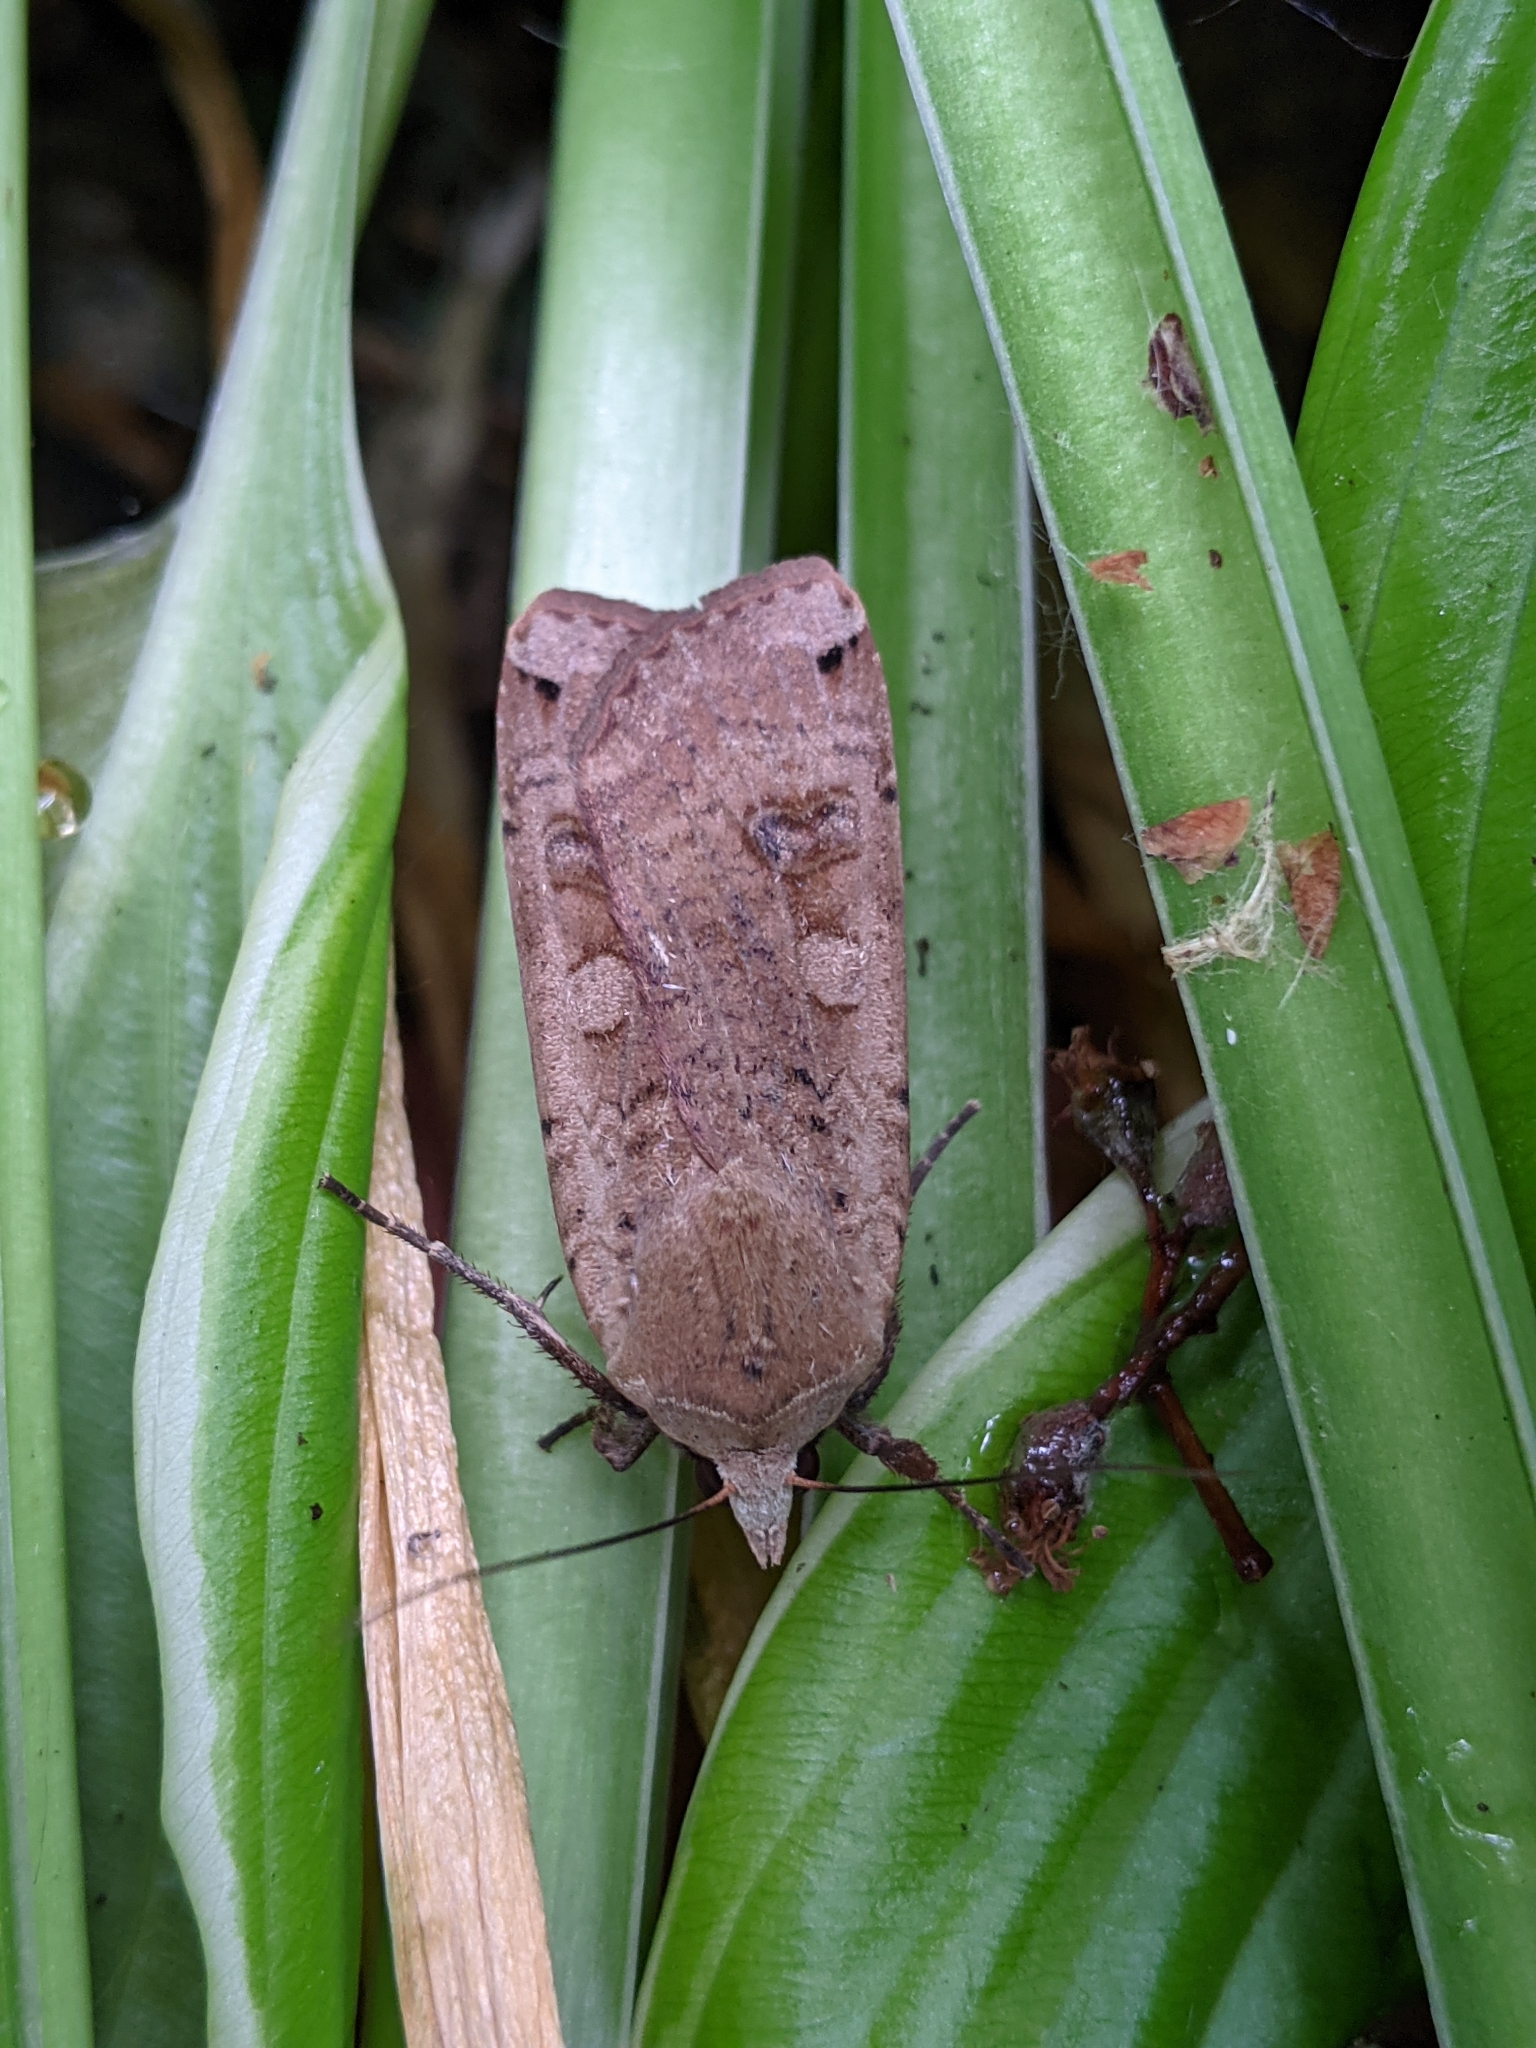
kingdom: Animalia
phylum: Arthropoda
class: Insecta
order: Lepidoptera
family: Noctuidae
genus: Noctua
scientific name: Noctua pronuba
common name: Large yellow underwing
